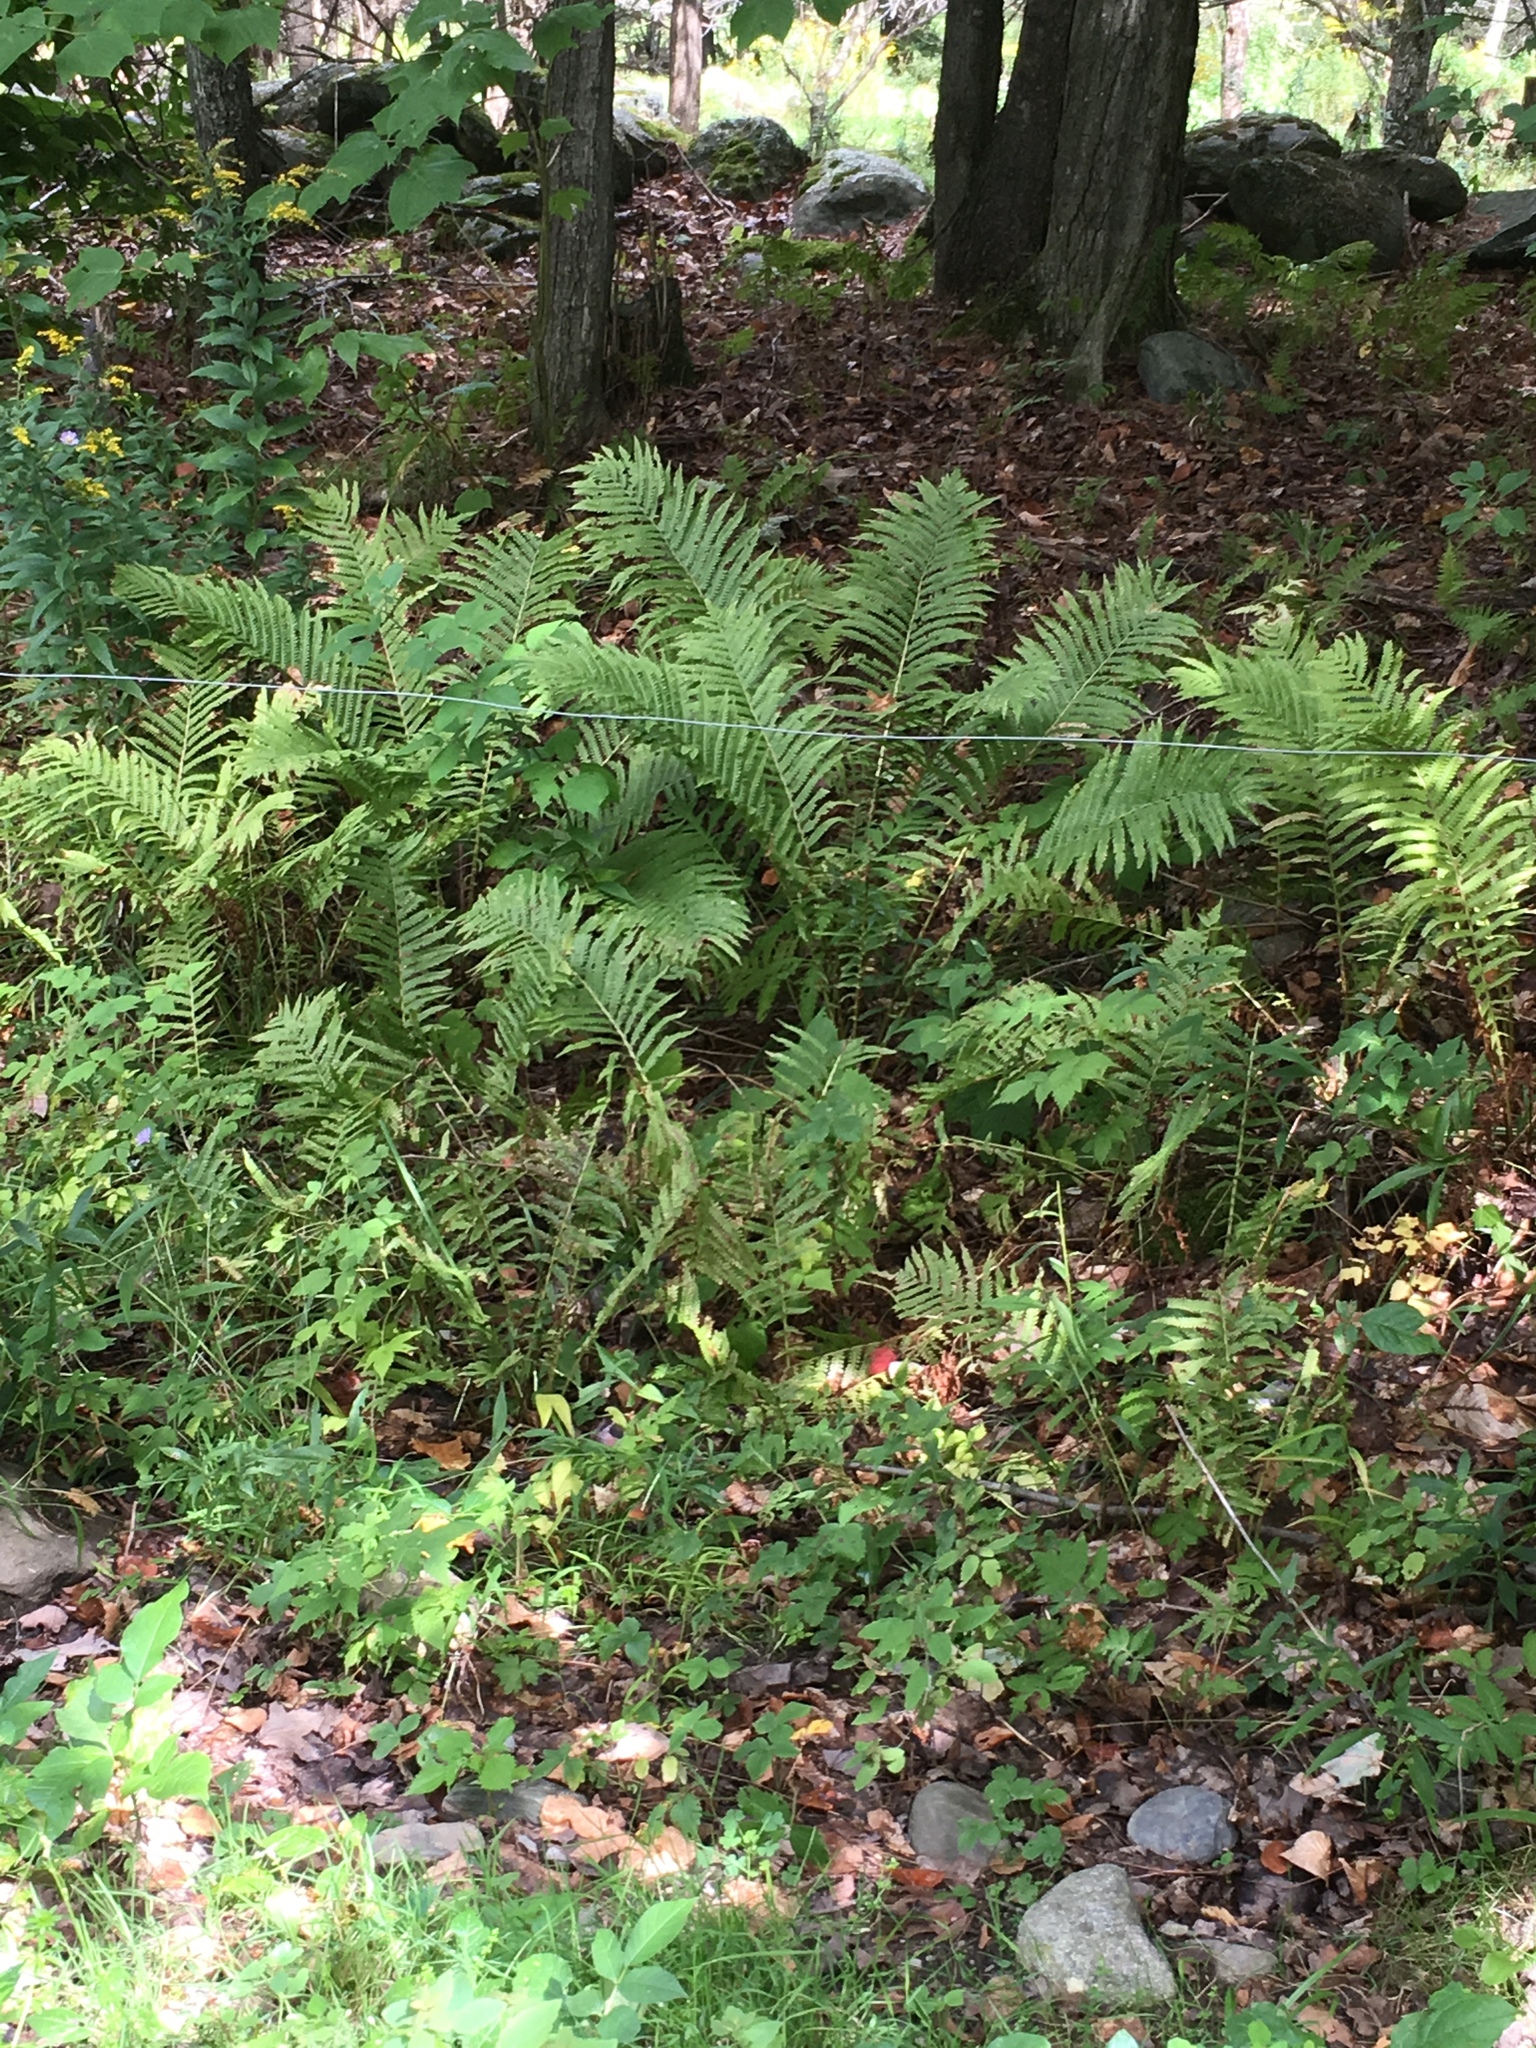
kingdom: Plantae
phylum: Tracheophyta
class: Polypodiopsida
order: Polypodiales
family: Onocleaceae
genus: Matteuccia
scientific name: Matteuccia struthiopteris
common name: Ostrich fern
